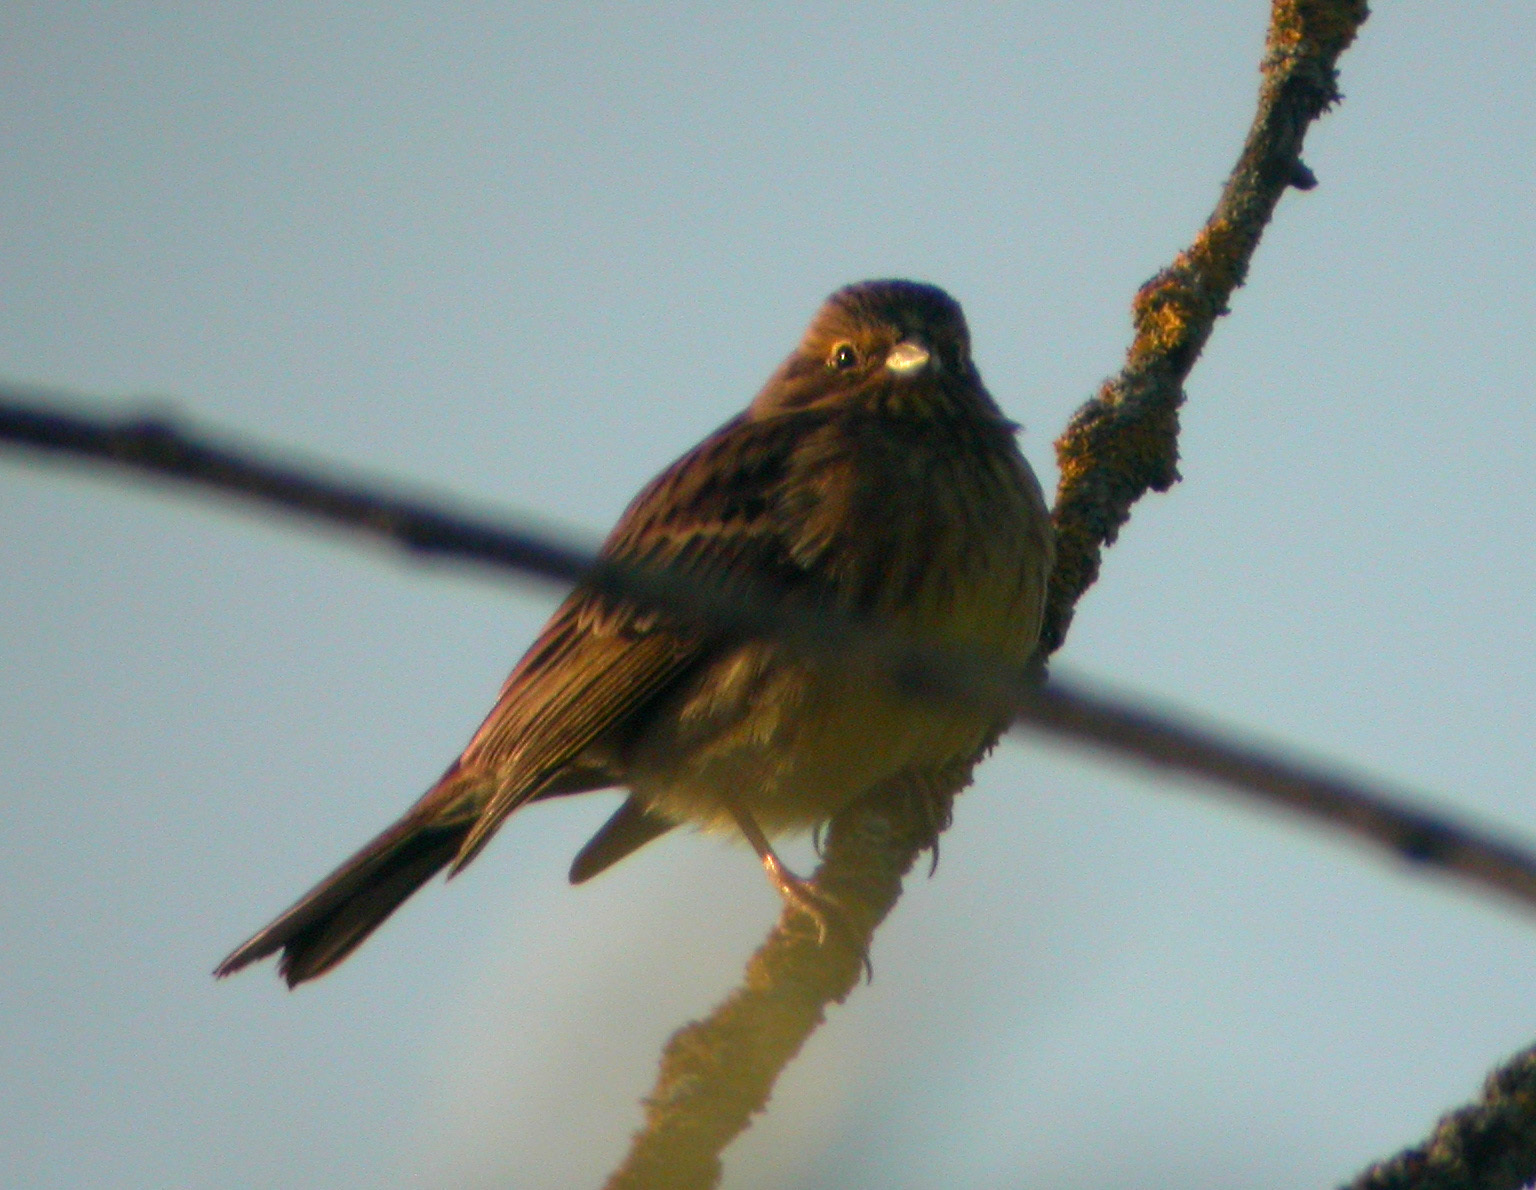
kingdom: Animalia
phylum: Chordata
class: Aves
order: Passeriformes
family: Emberizidae
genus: Emberiza
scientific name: Emberiza citrinella
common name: Yellowhammer
